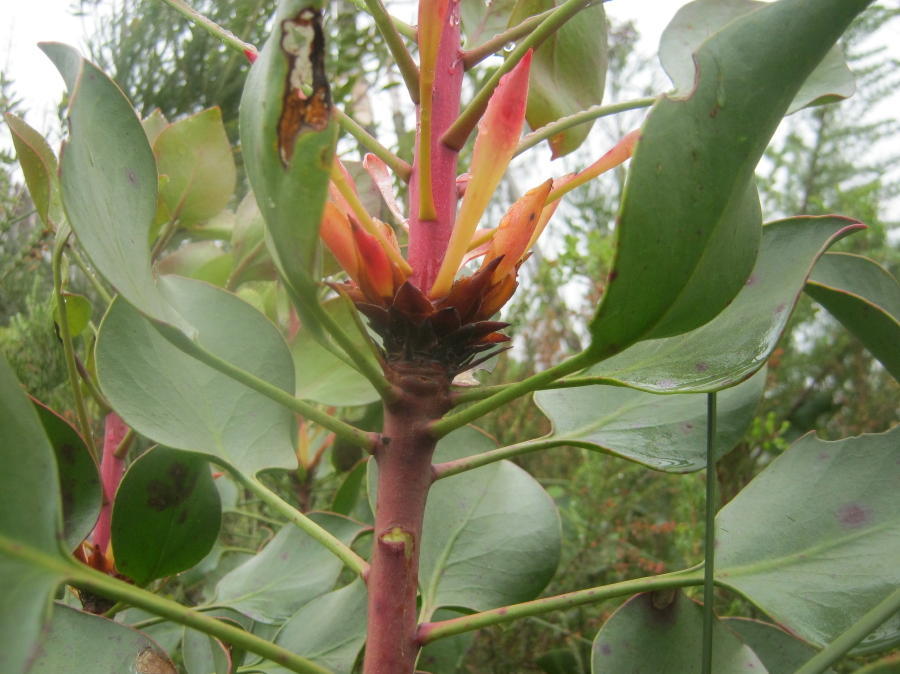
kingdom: Plantae
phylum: Tracheophyta
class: Magnoliopsida
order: Proteales
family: Proteaceae
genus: Protea
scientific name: Protea cynaroides
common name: King protea
